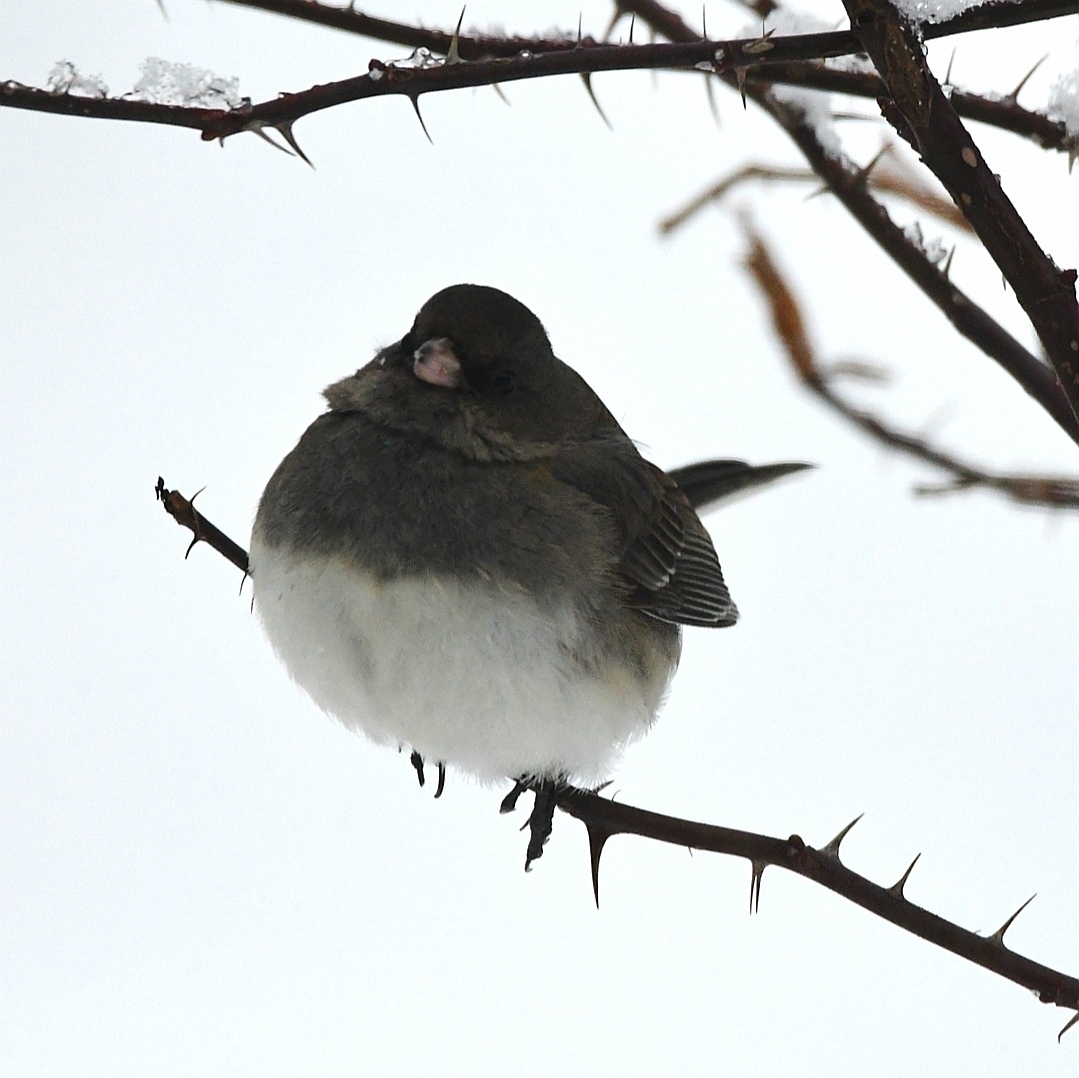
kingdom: Animalia
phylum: Chordata
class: Aves
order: Passeriformes
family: Passerellidae
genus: Junco
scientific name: Junco hyemalis
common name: Dark-eyed junco
